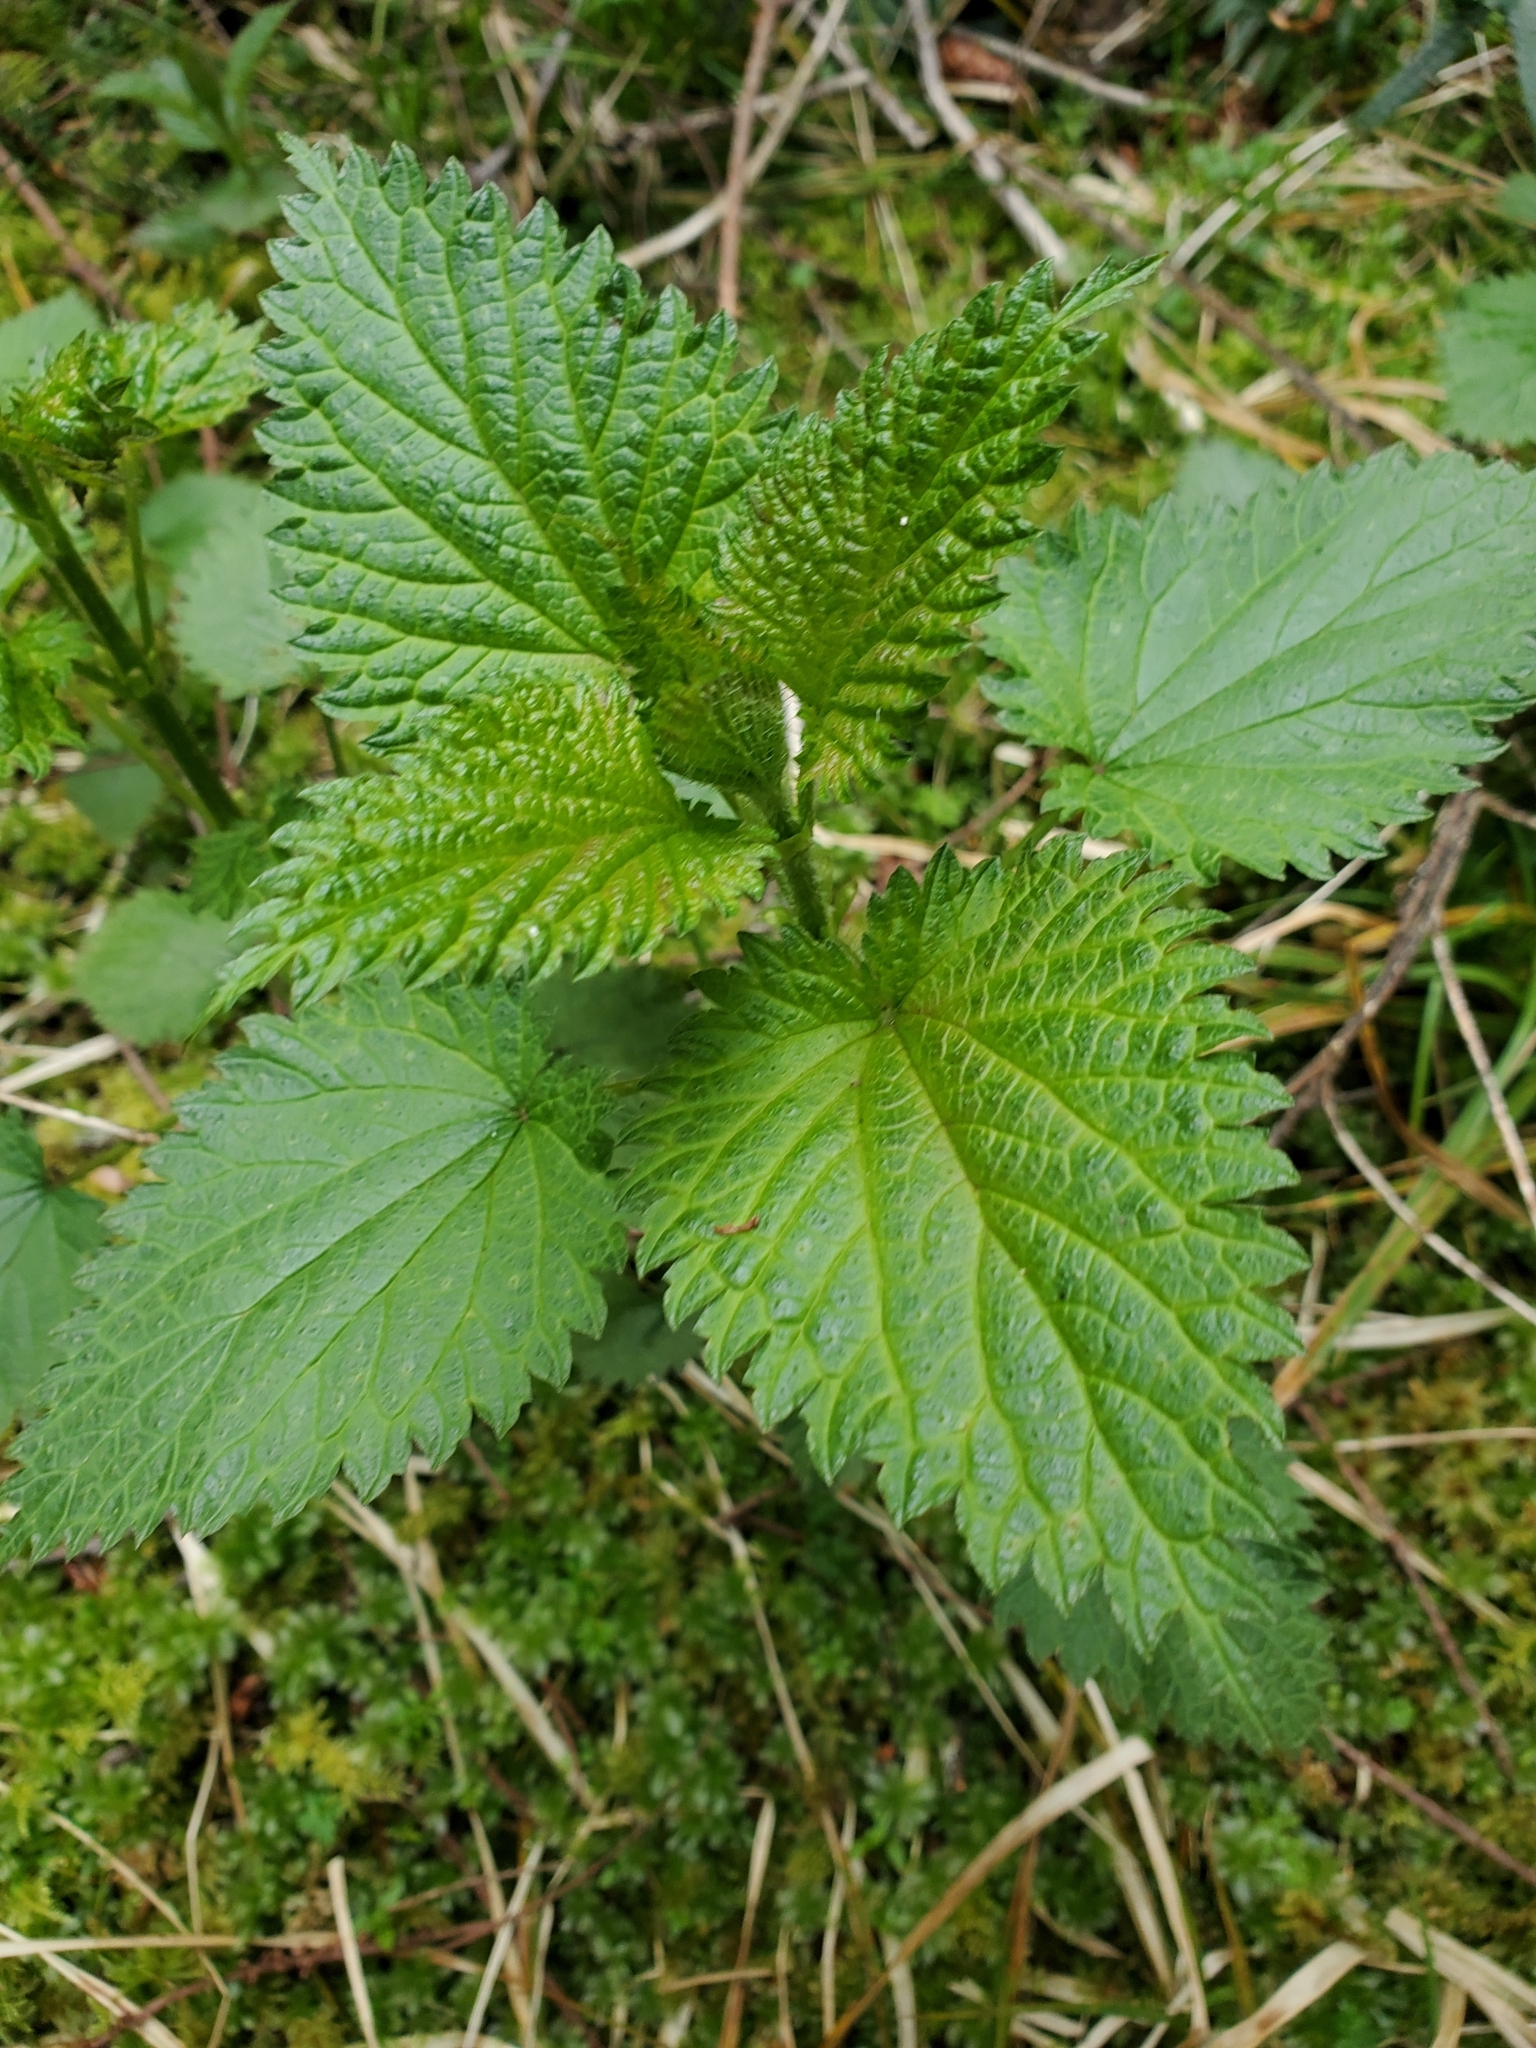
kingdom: Plantae
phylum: Tracheophyta
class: Magnoliopsida
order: Rosales
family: Urticaceae
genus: Urtica
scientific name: Urtica dioica
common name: Common nettle
